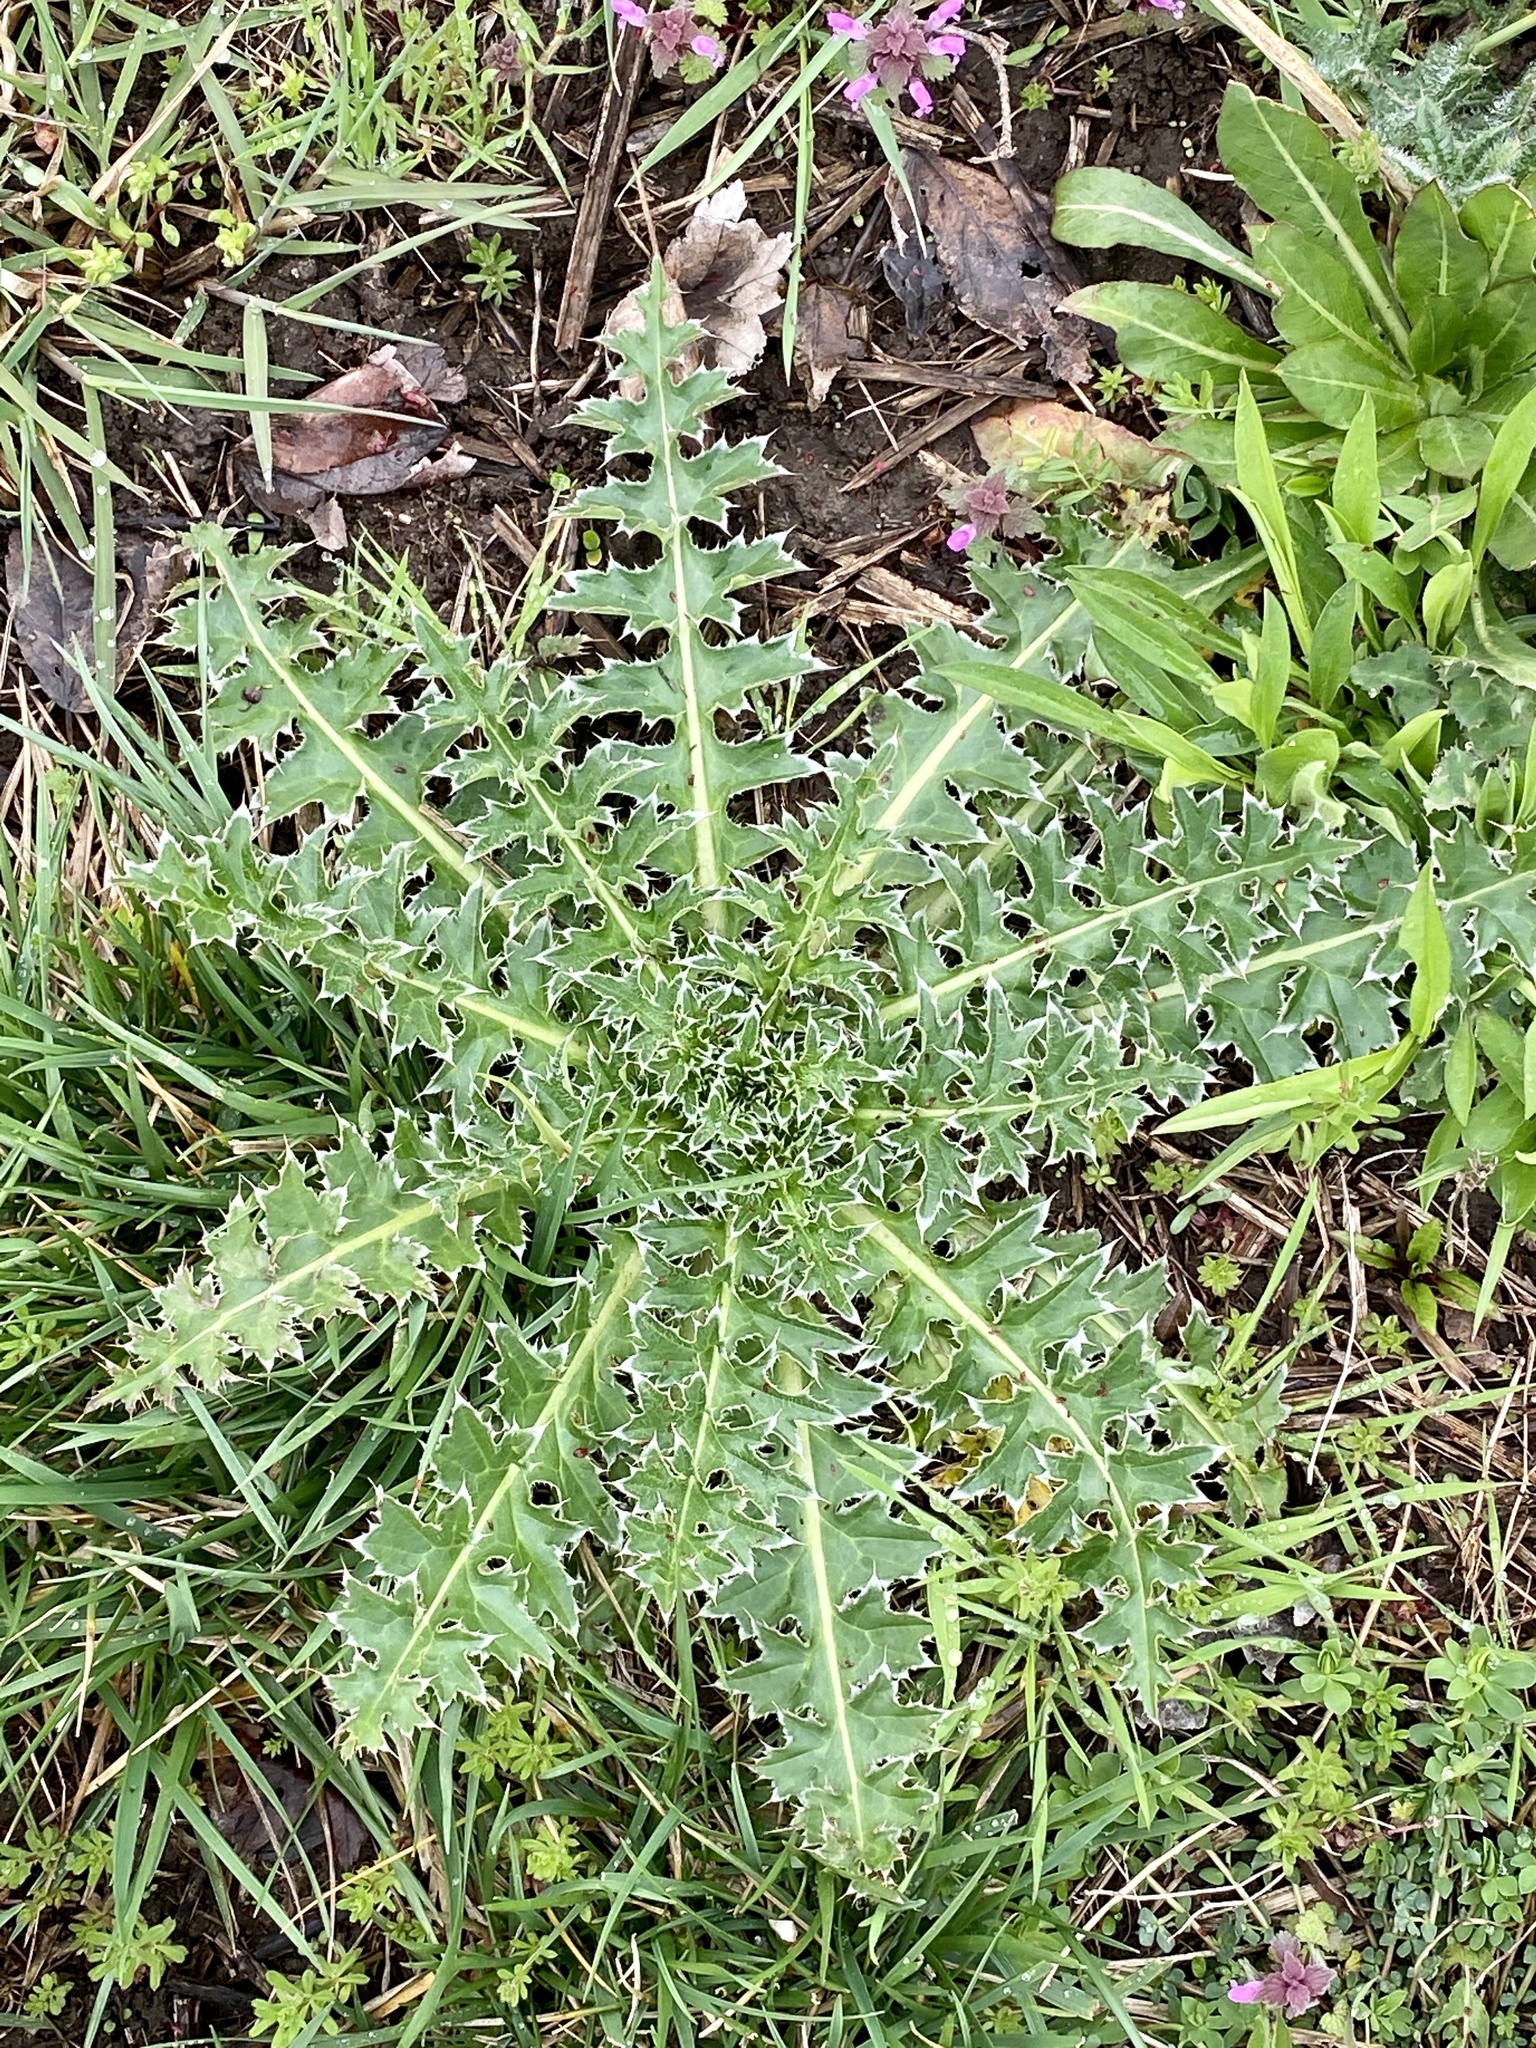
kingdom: Plantae
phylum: Tracheophyta
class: Magnoliopsida
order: Asterales
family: Asteraceae
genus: Carduus
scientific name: Carduus nutans
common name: Musk thistle
